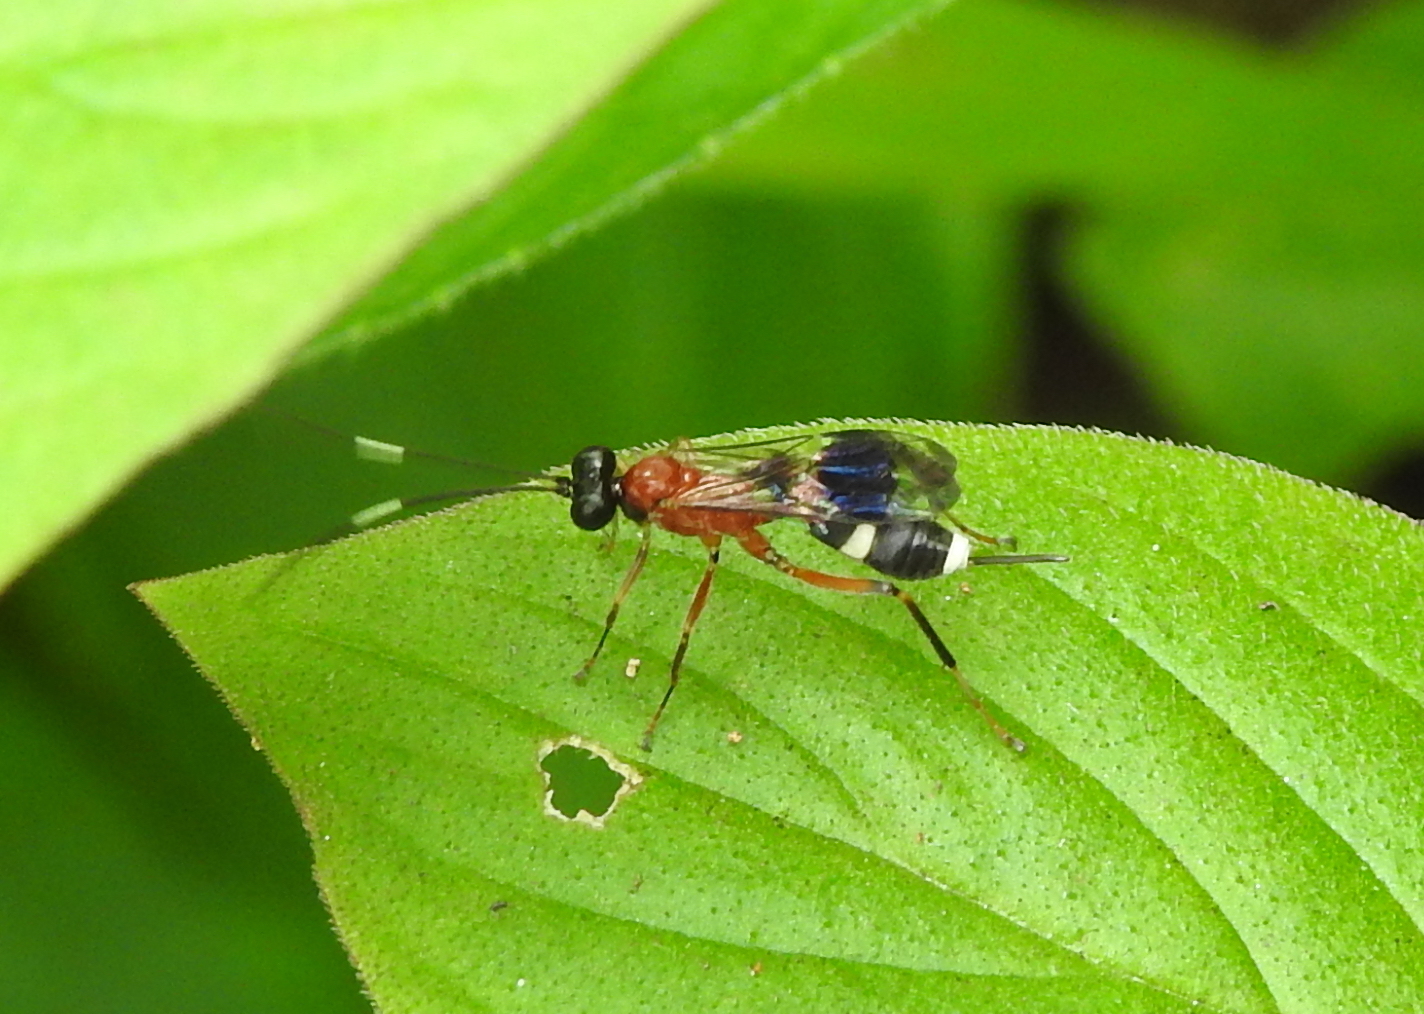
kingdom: Animalia
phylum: Arthropoda
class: Insecta
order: Hymenoptera
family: Ichneumonidae
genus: Goryphus
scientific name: Goryphus basilaris
